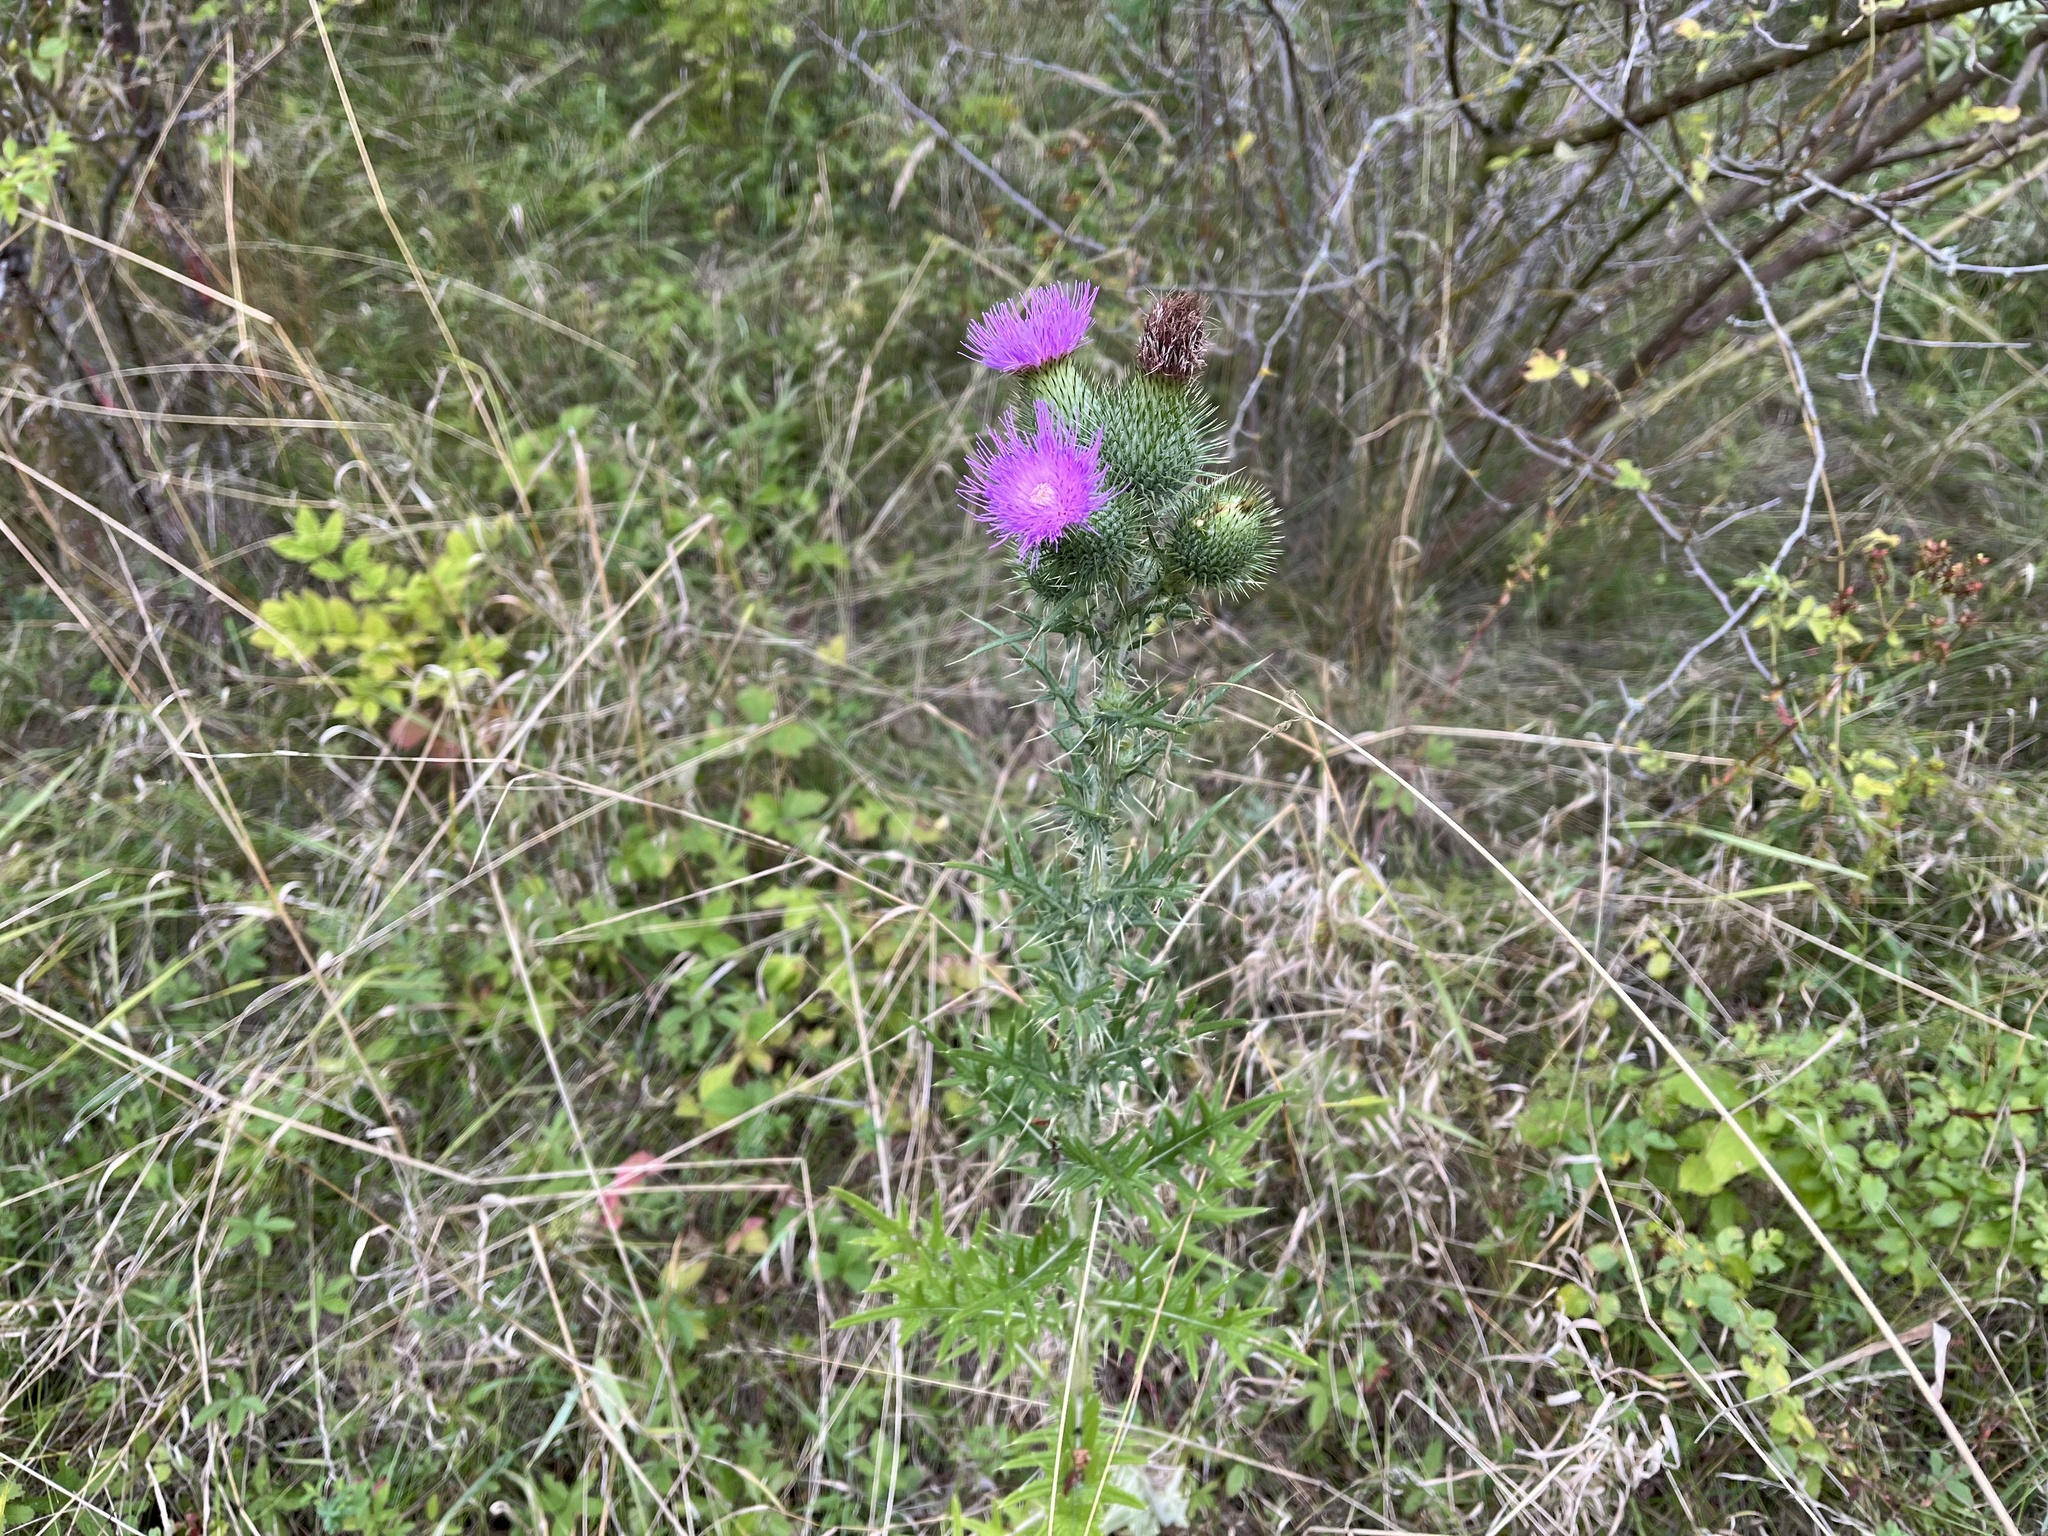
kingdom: Plantae
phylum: Tracheophyta
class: Magnoliopsida
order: Asterales
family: Asteraceae
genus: Cirsium
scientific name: Cirsium vulgare
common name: Bull thistle
